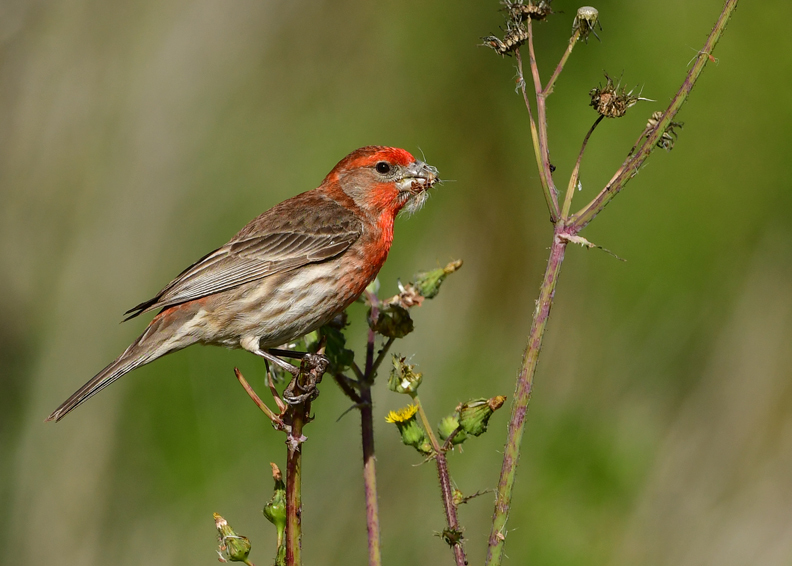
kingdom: Animalia
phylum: Chordata
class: Aves
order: Passeriformes
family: Fringillidae
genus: Haemorhous
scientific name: Haemorhous mexicanus
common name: House finch
